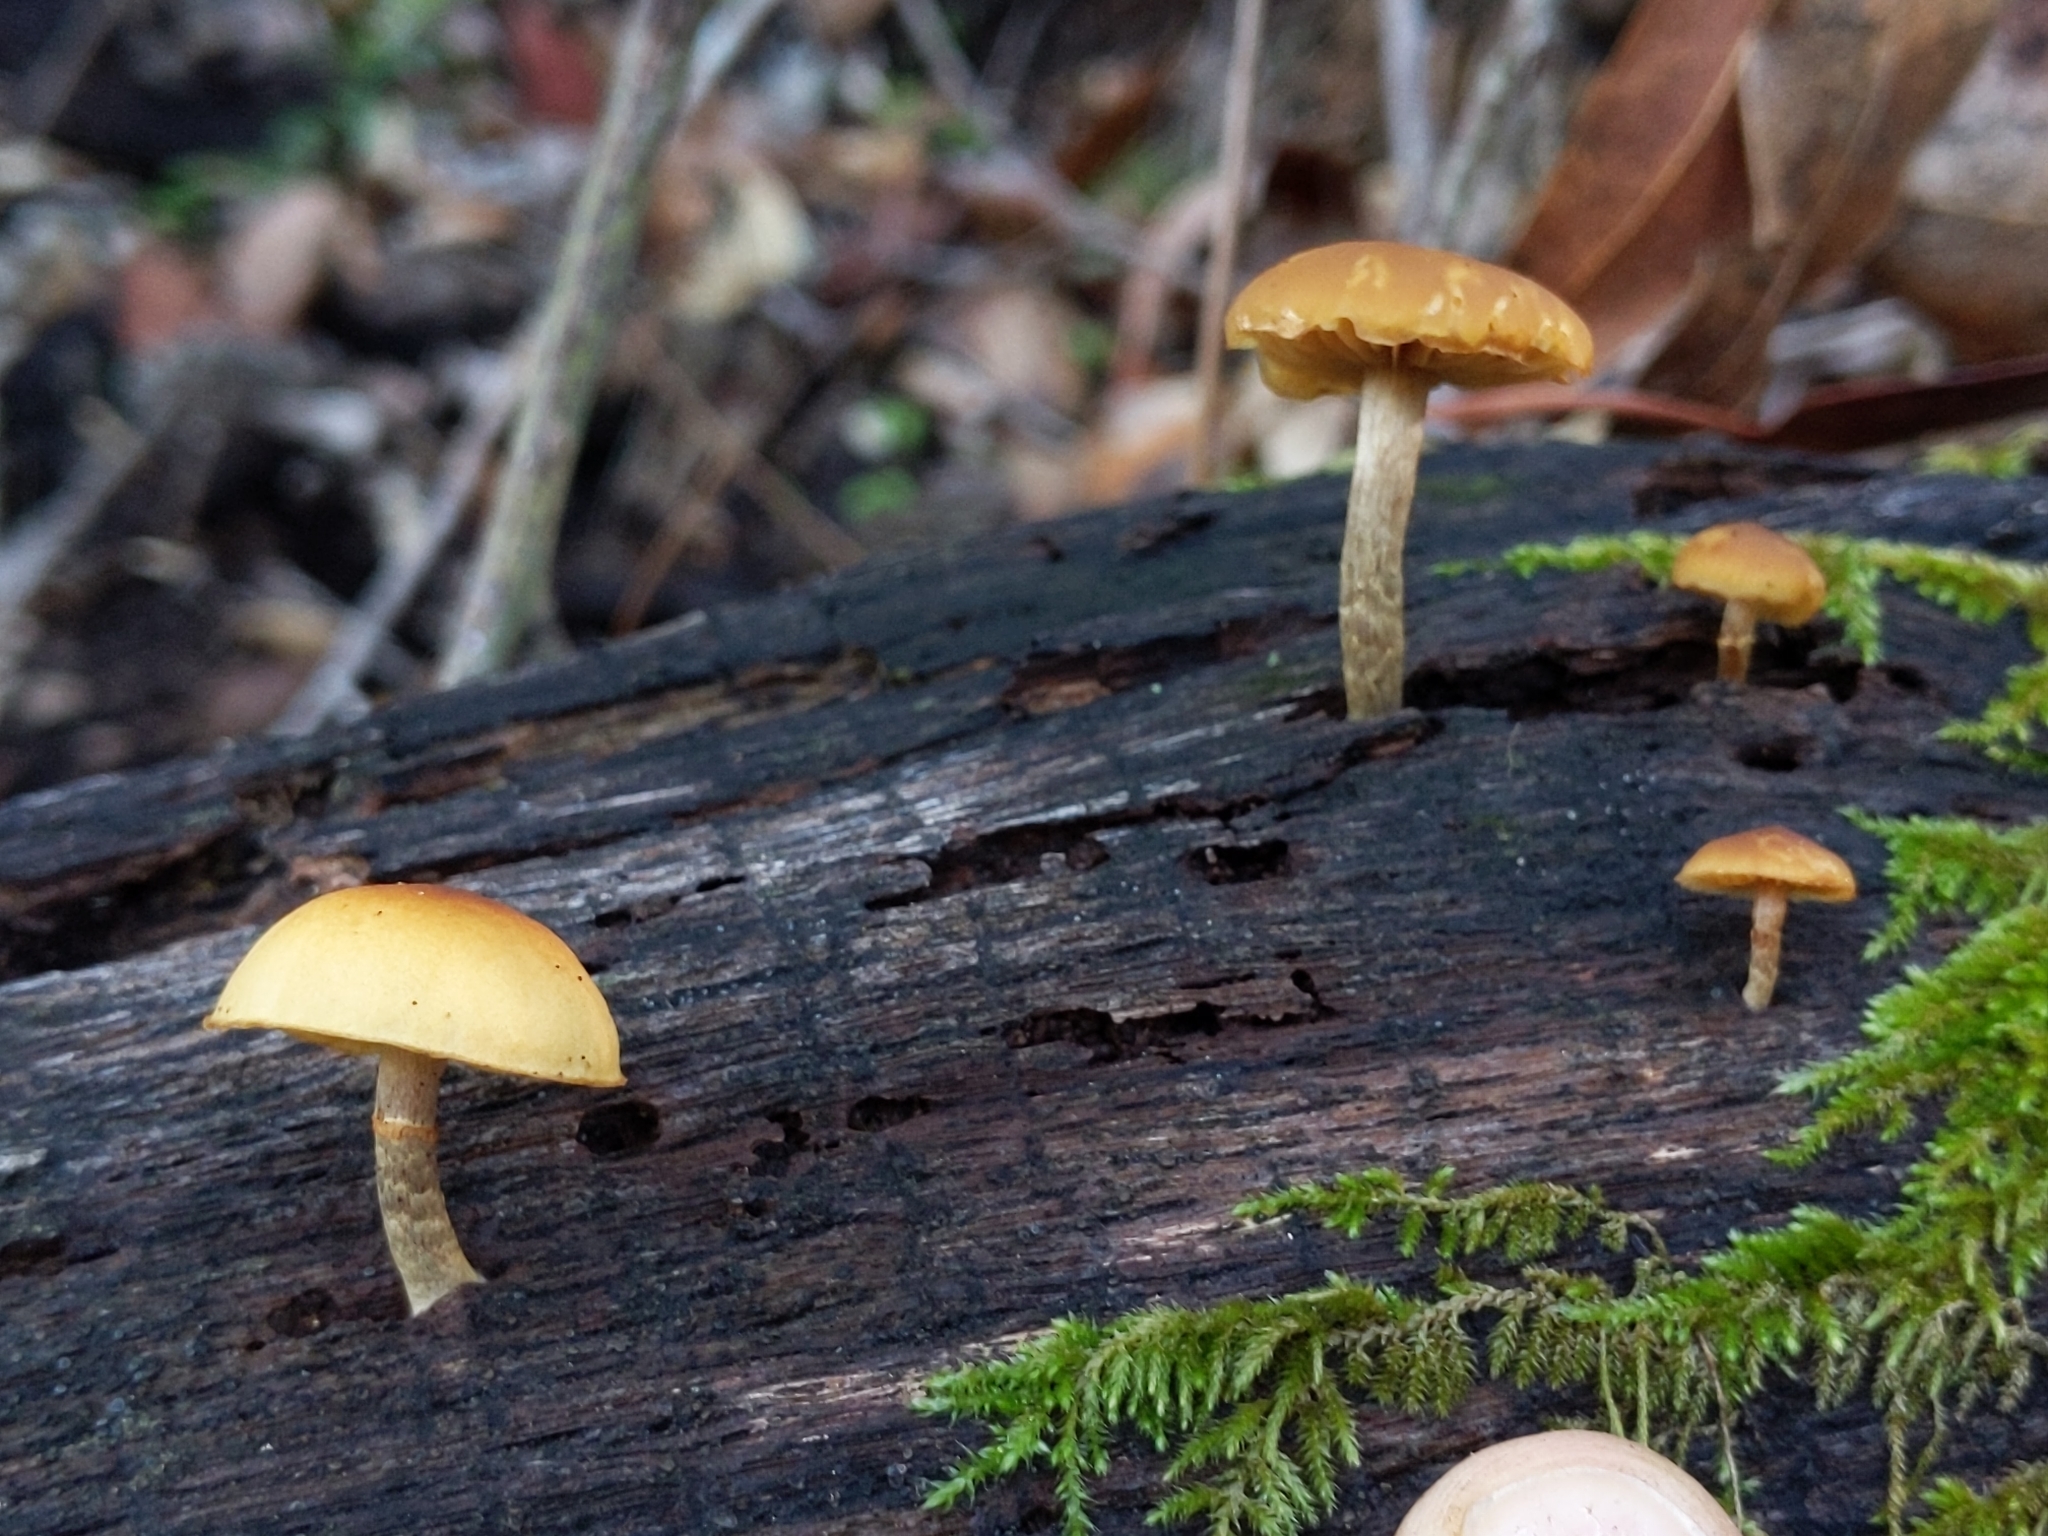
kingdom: Fungi
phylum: Basidiomycota
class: Agaricomycetes
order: Agaricales
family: Hymenogastraceae
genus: Galerina
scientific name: Galerina marginata
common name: Funeral bell
